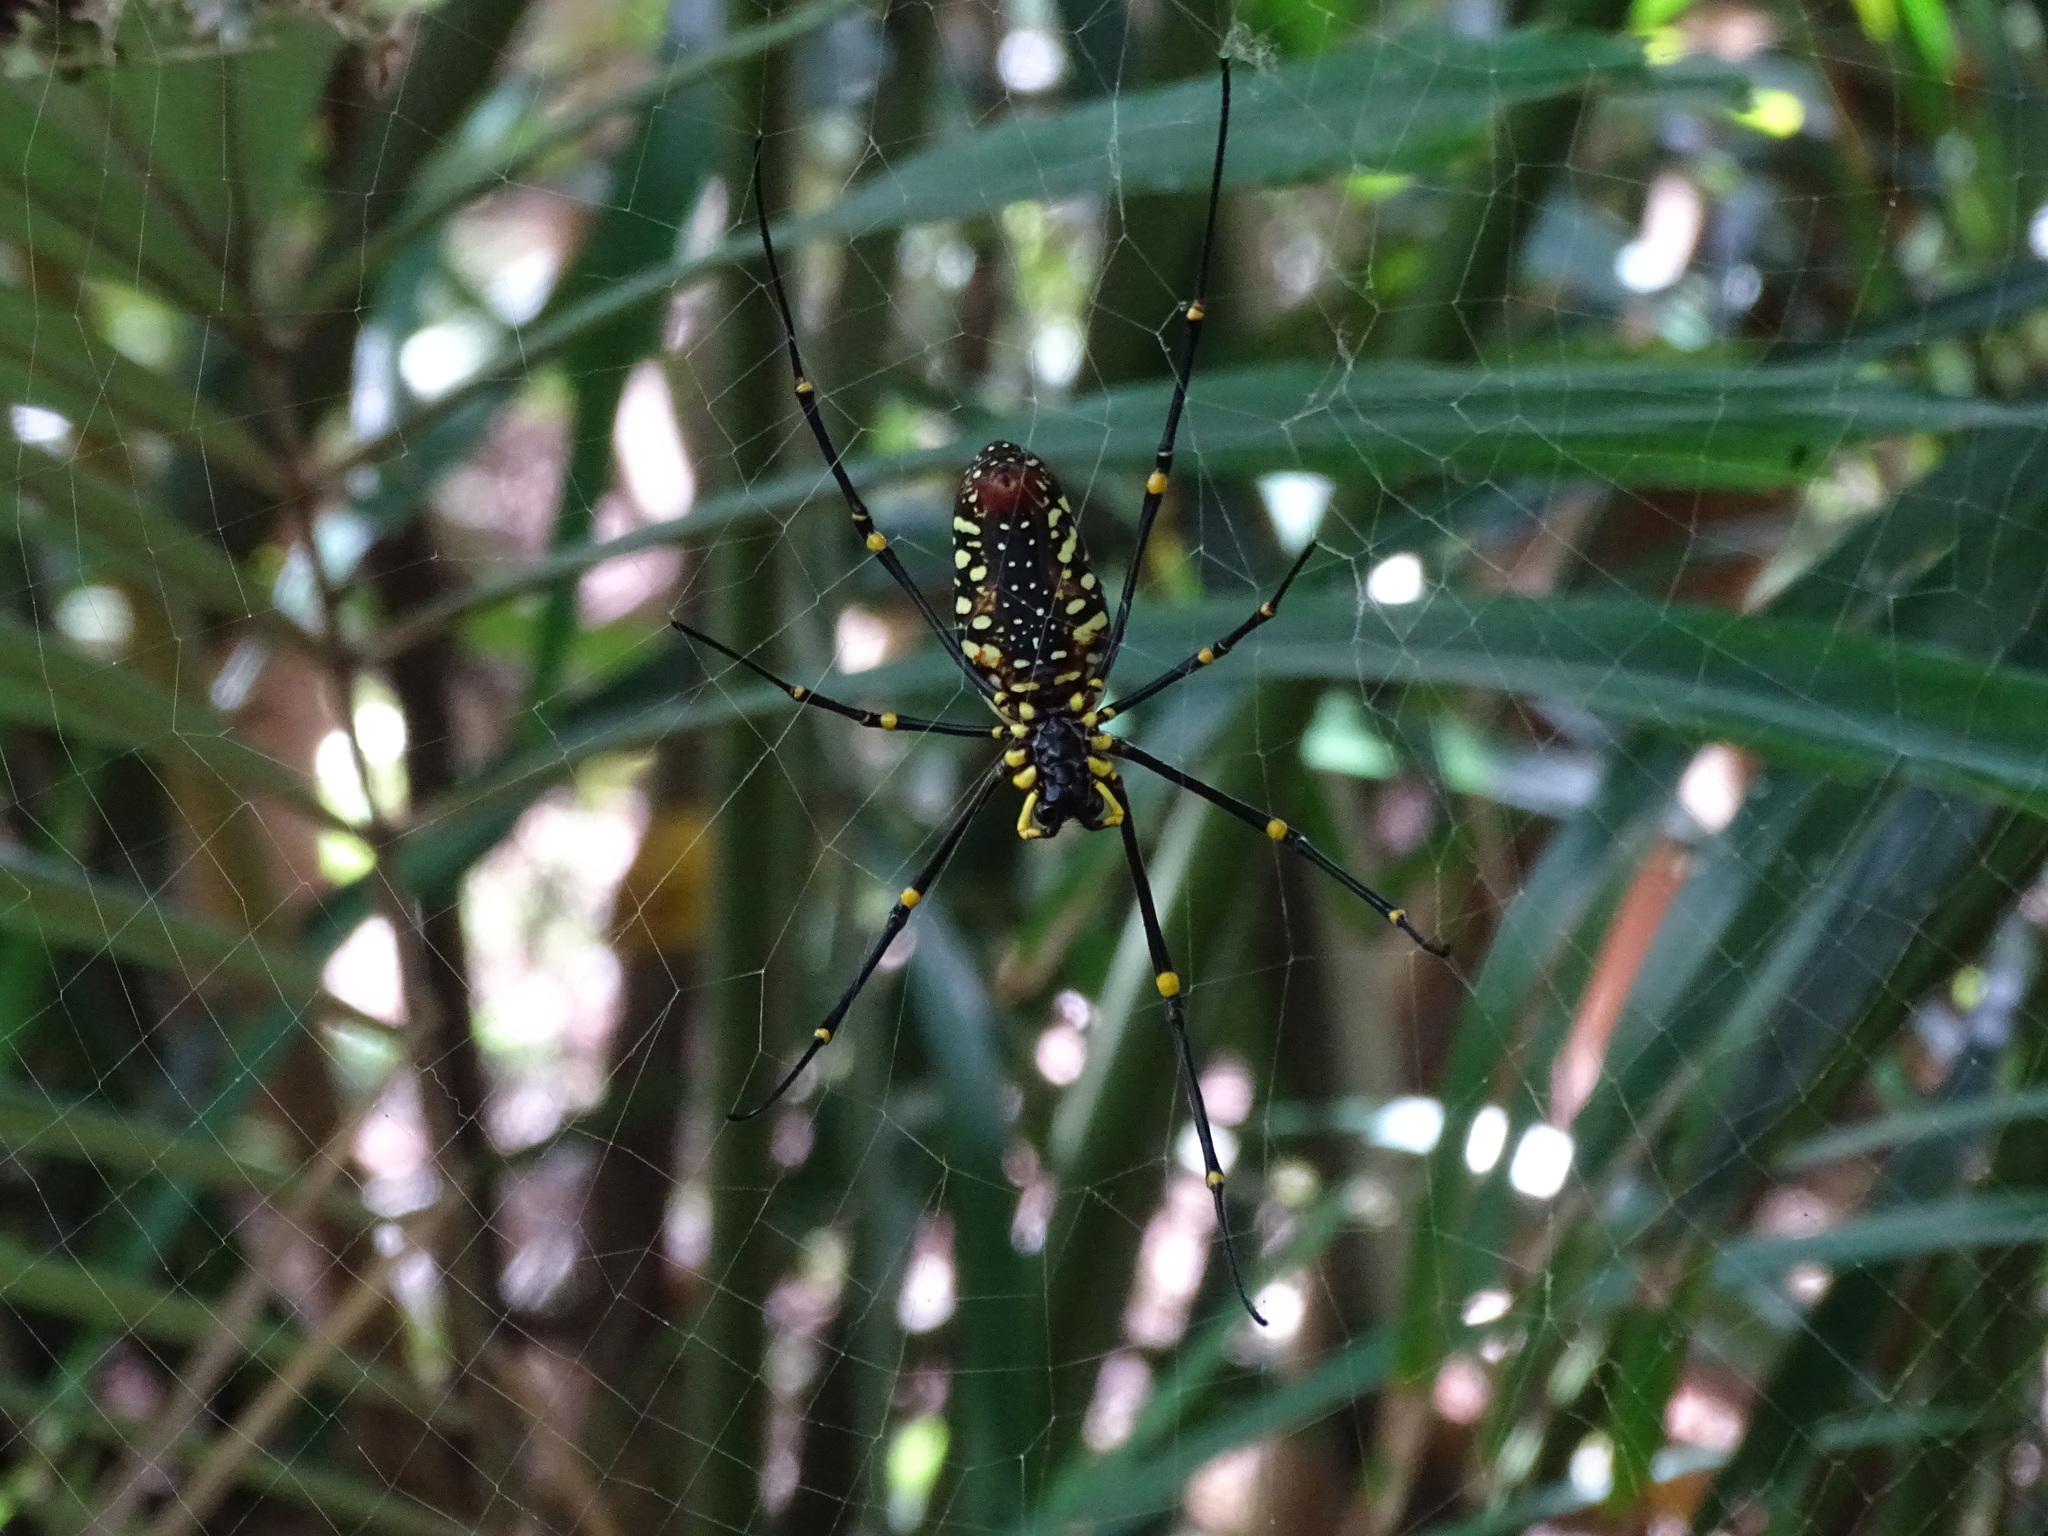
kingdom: Animalia
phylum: Arthropoda
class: Arachnida
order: Araneae
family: Araneidae
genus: Nephila
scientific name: Nephila pilipes
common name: Giant golden orb weaver
